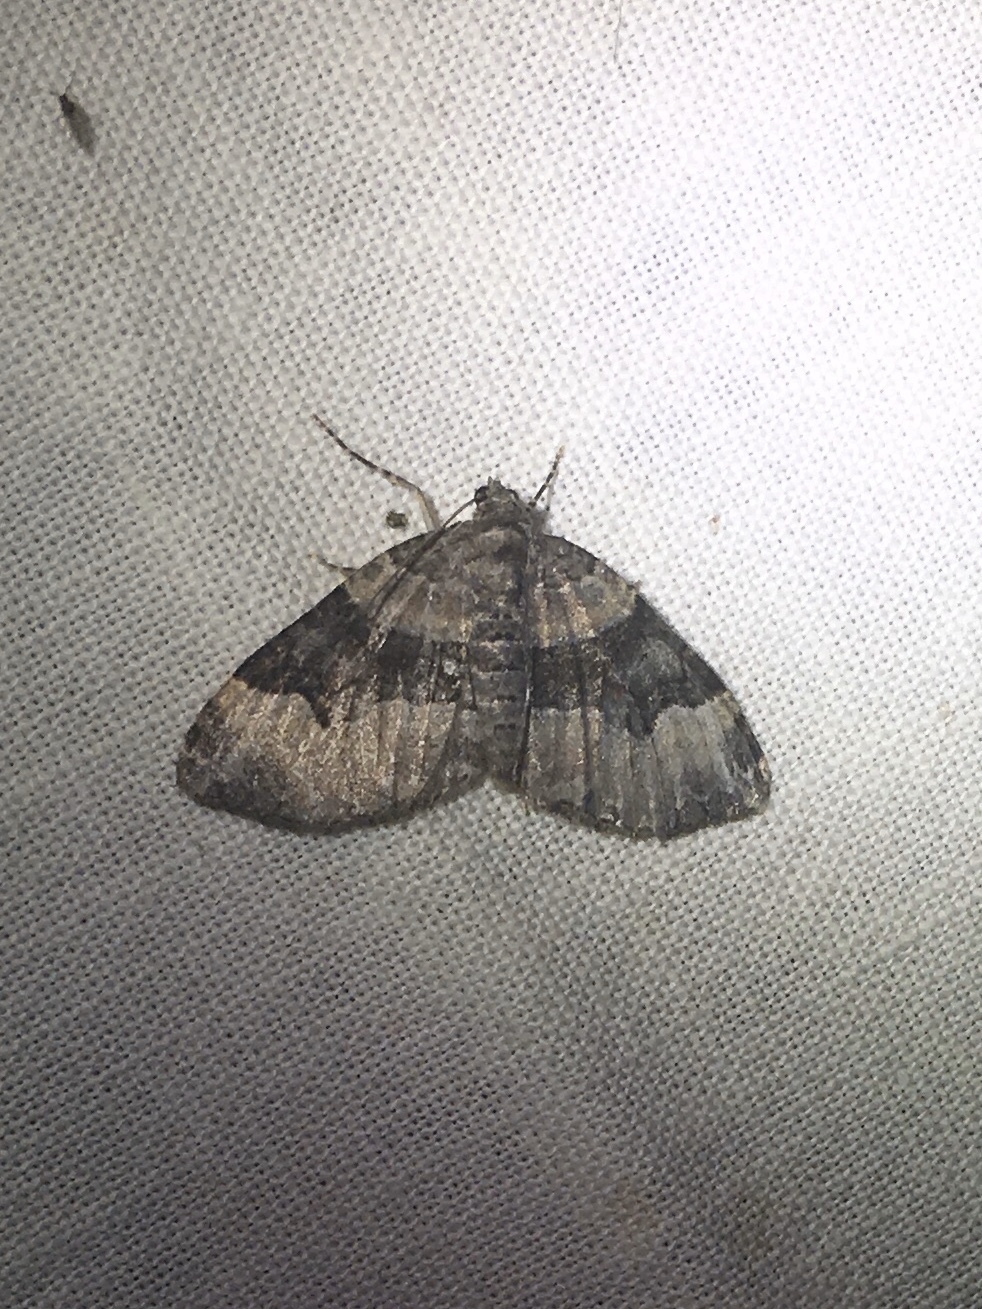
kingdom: Animalia
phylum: Arthropoda
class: Insecta
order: Lepidoptera
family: Geometridae
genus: Xanthorhoe
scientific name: Xanthorhoe lacustrata
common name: Toothed brown carpet
